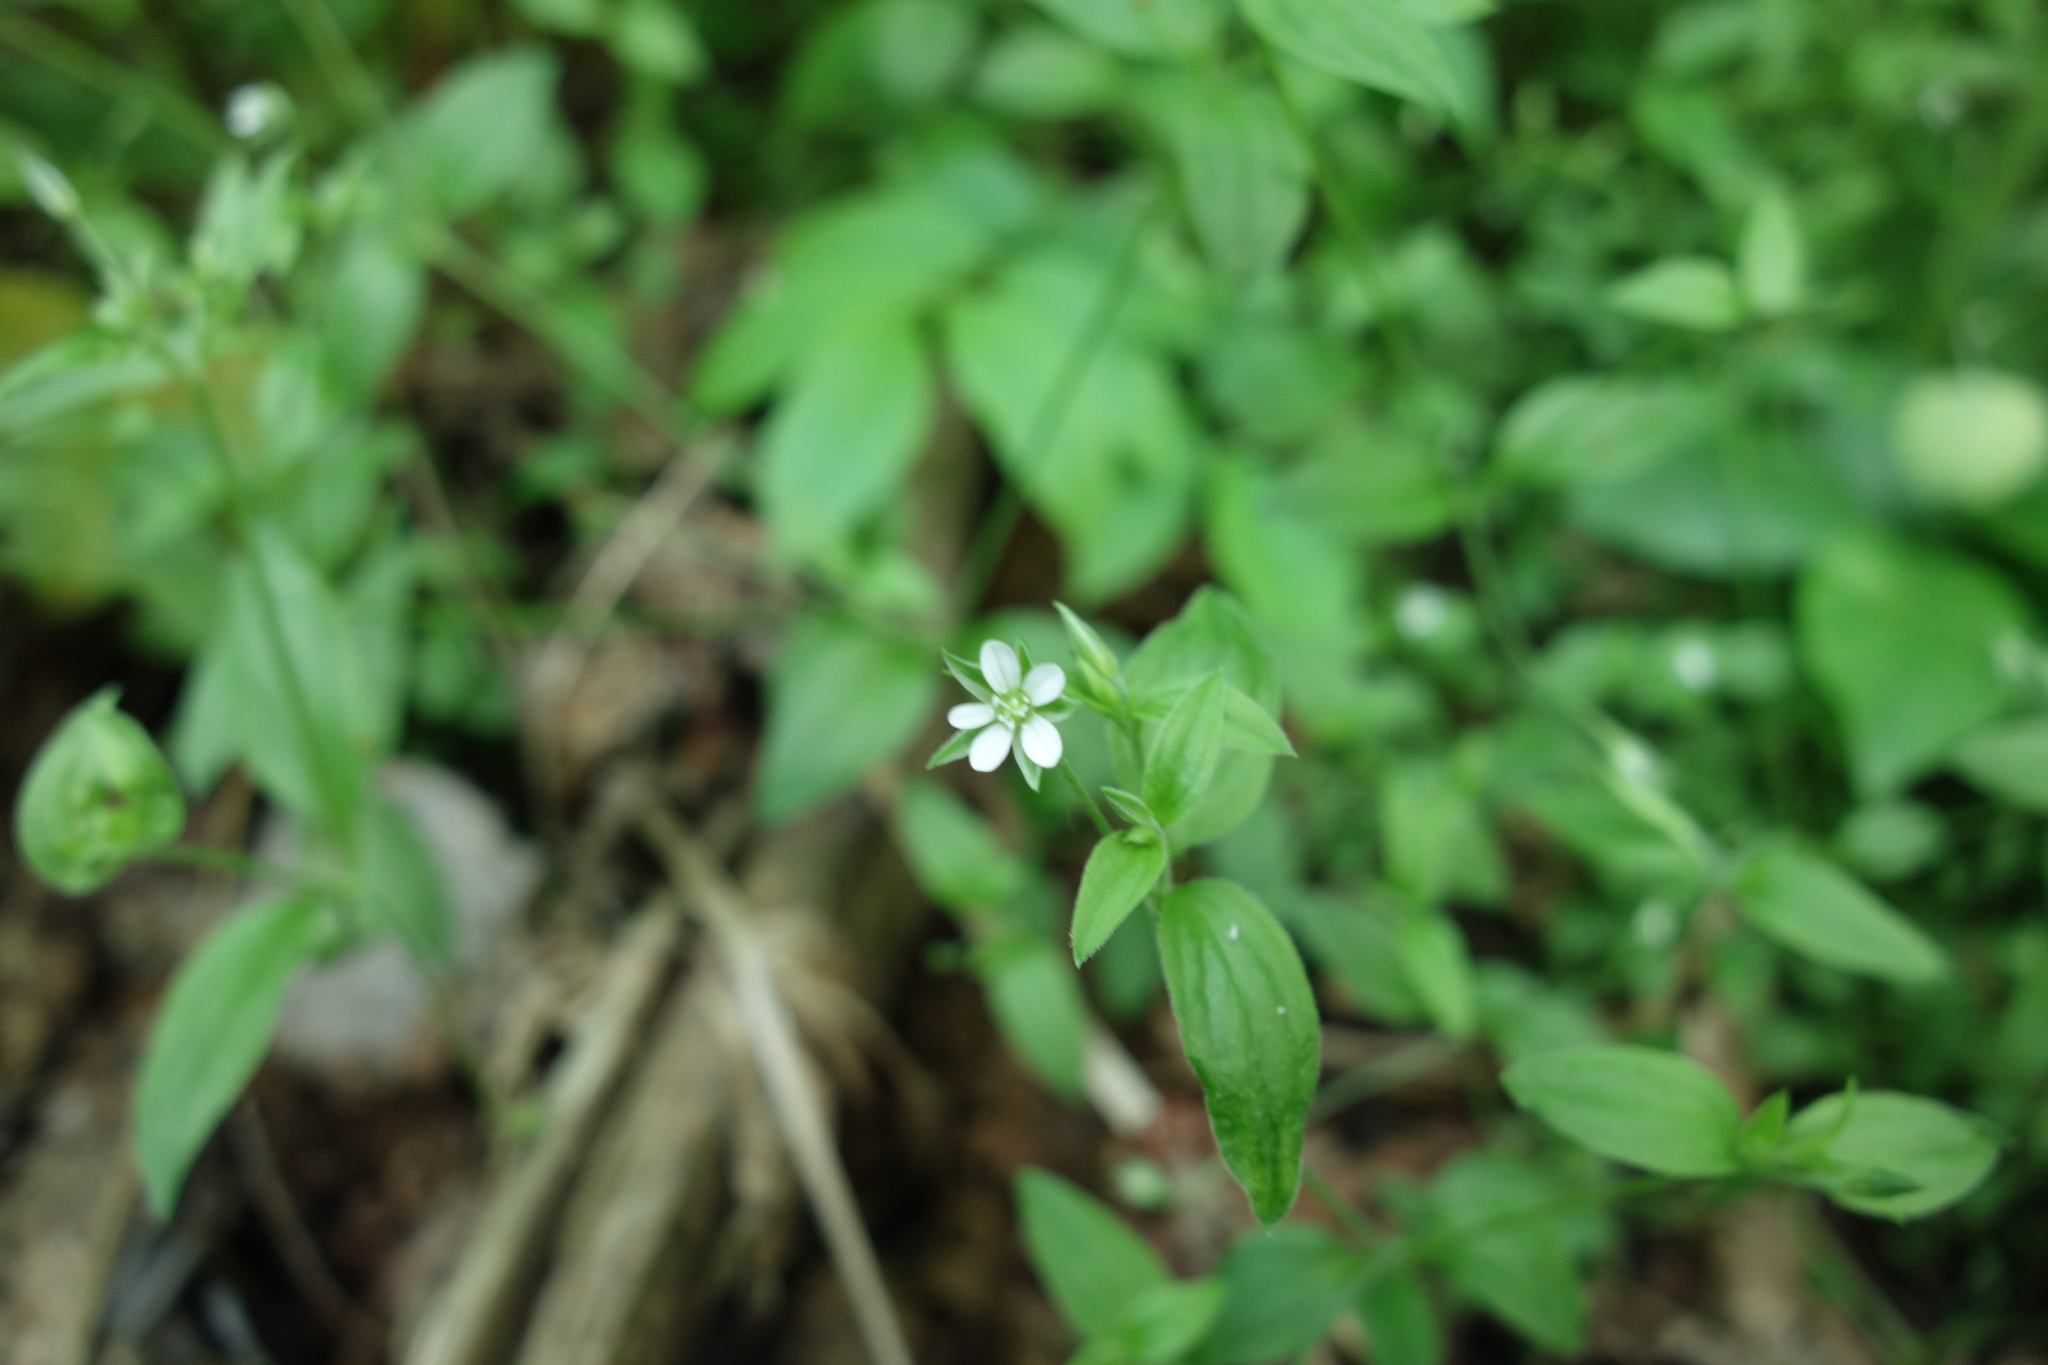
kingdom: Plantae
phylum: Tracheophyta
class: Magnoliopsida
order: Caryophyllales
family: Caryophyllaceae
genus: Moehringia
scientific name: Moehringia trinervia
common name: Three-nerved sandwort
